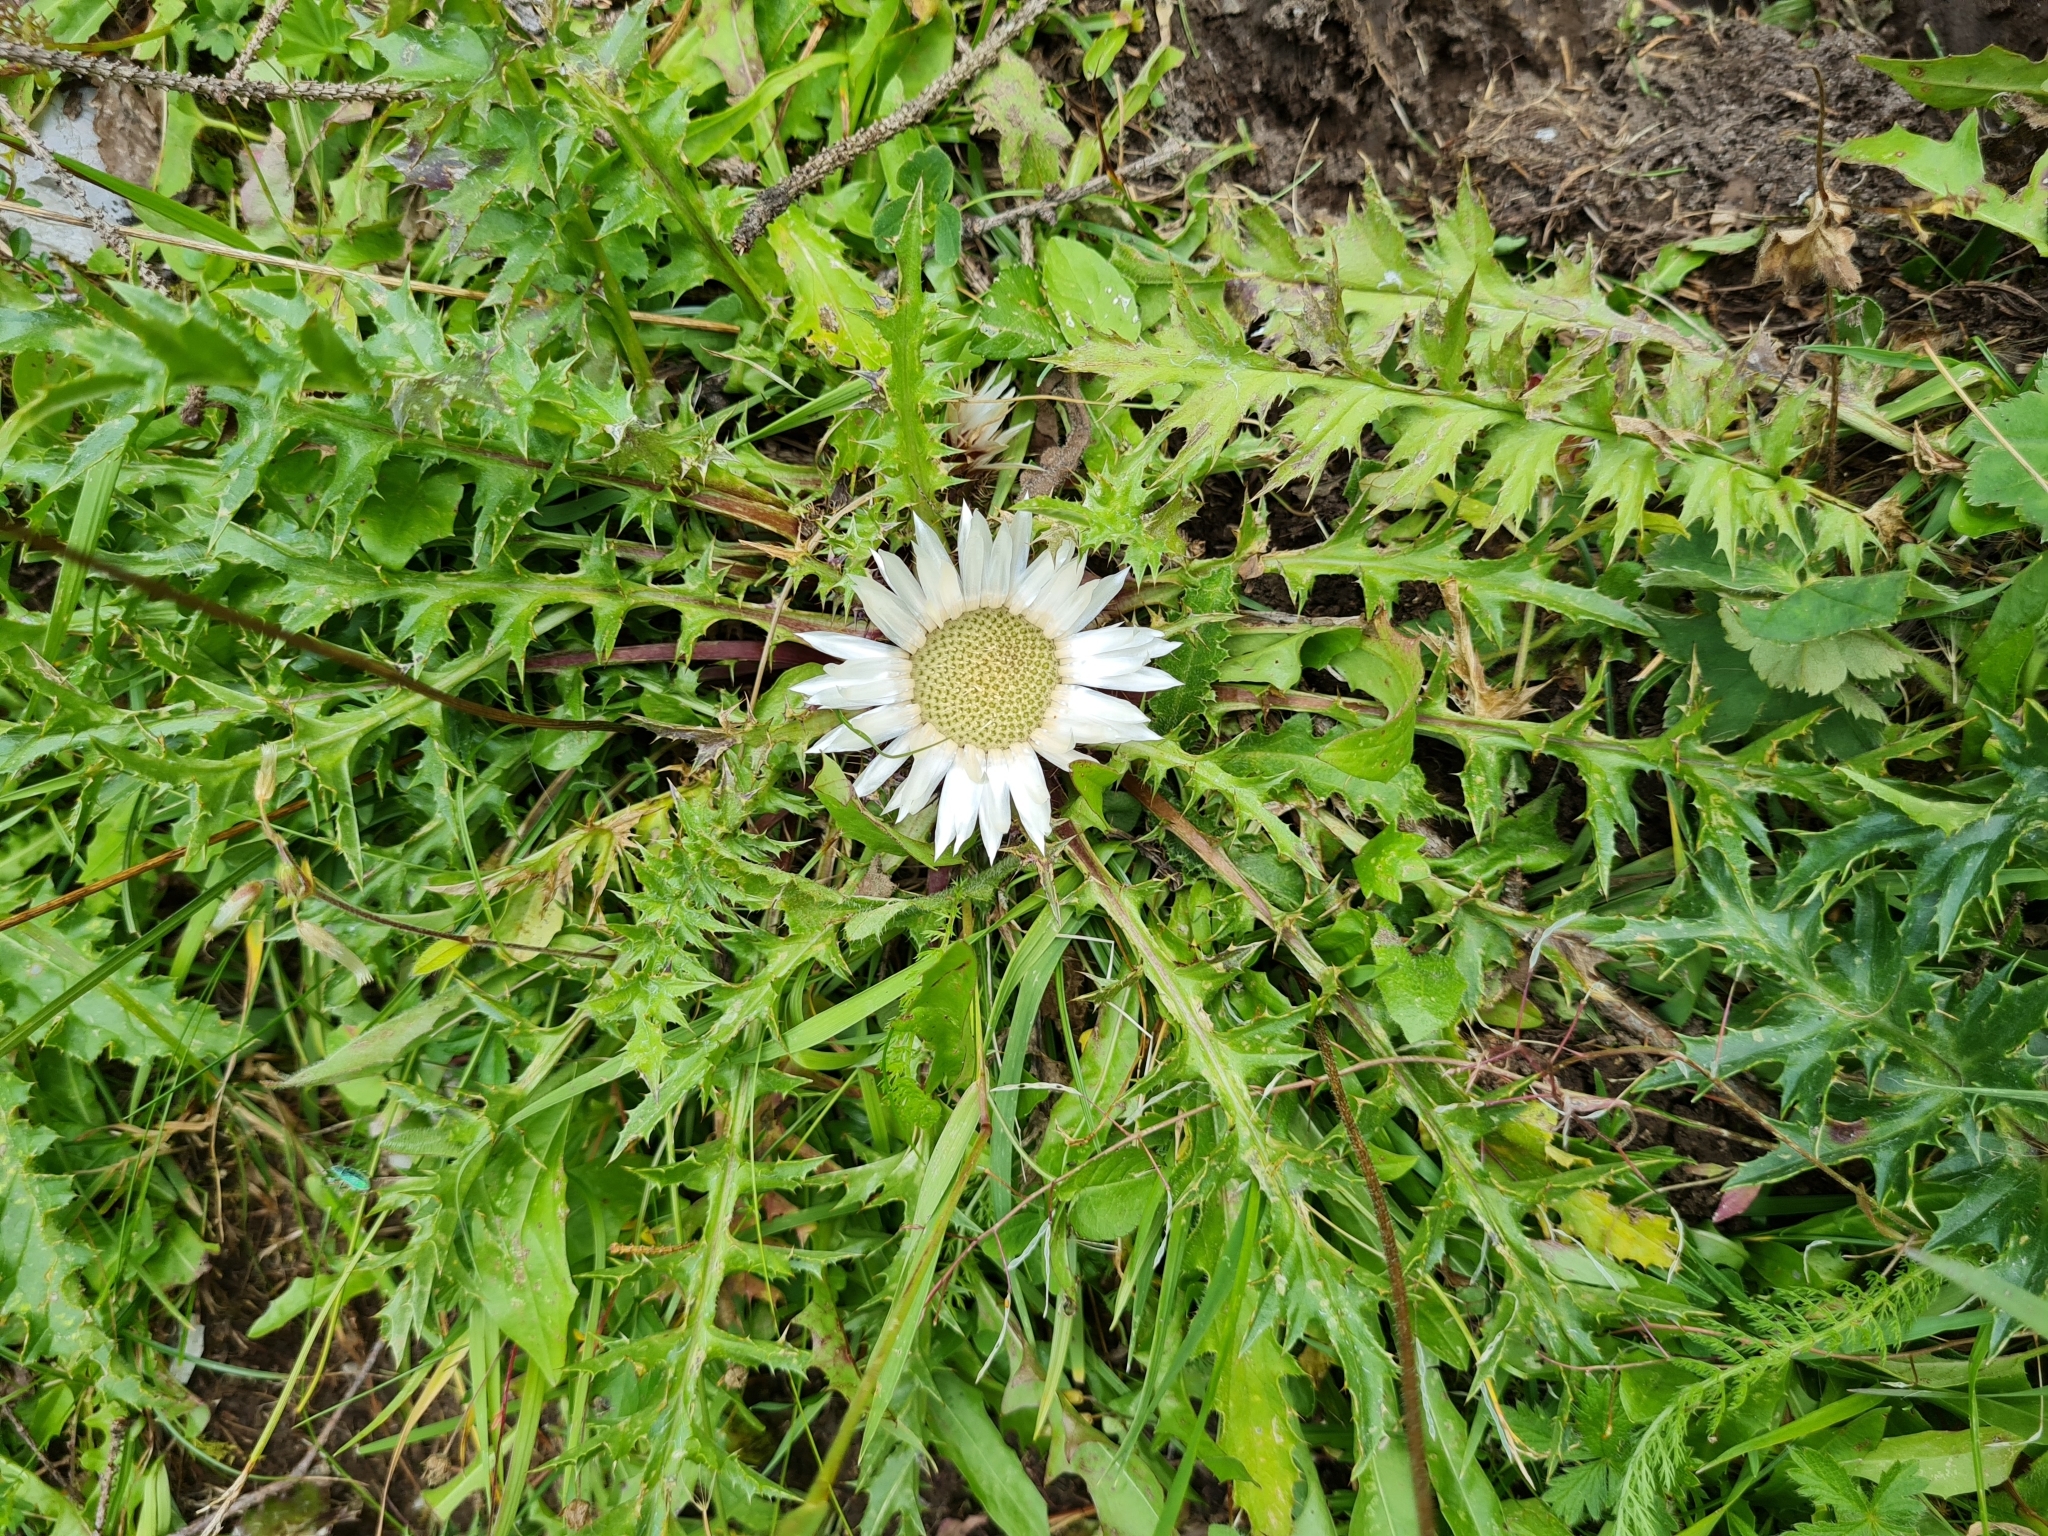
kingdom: Plantae
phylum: Tracheophyta
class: Magnoliopsida
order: Asterales
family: Asteraceae
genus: Carlina
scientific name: Carlina acaulis
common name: Stemless carline thistle
